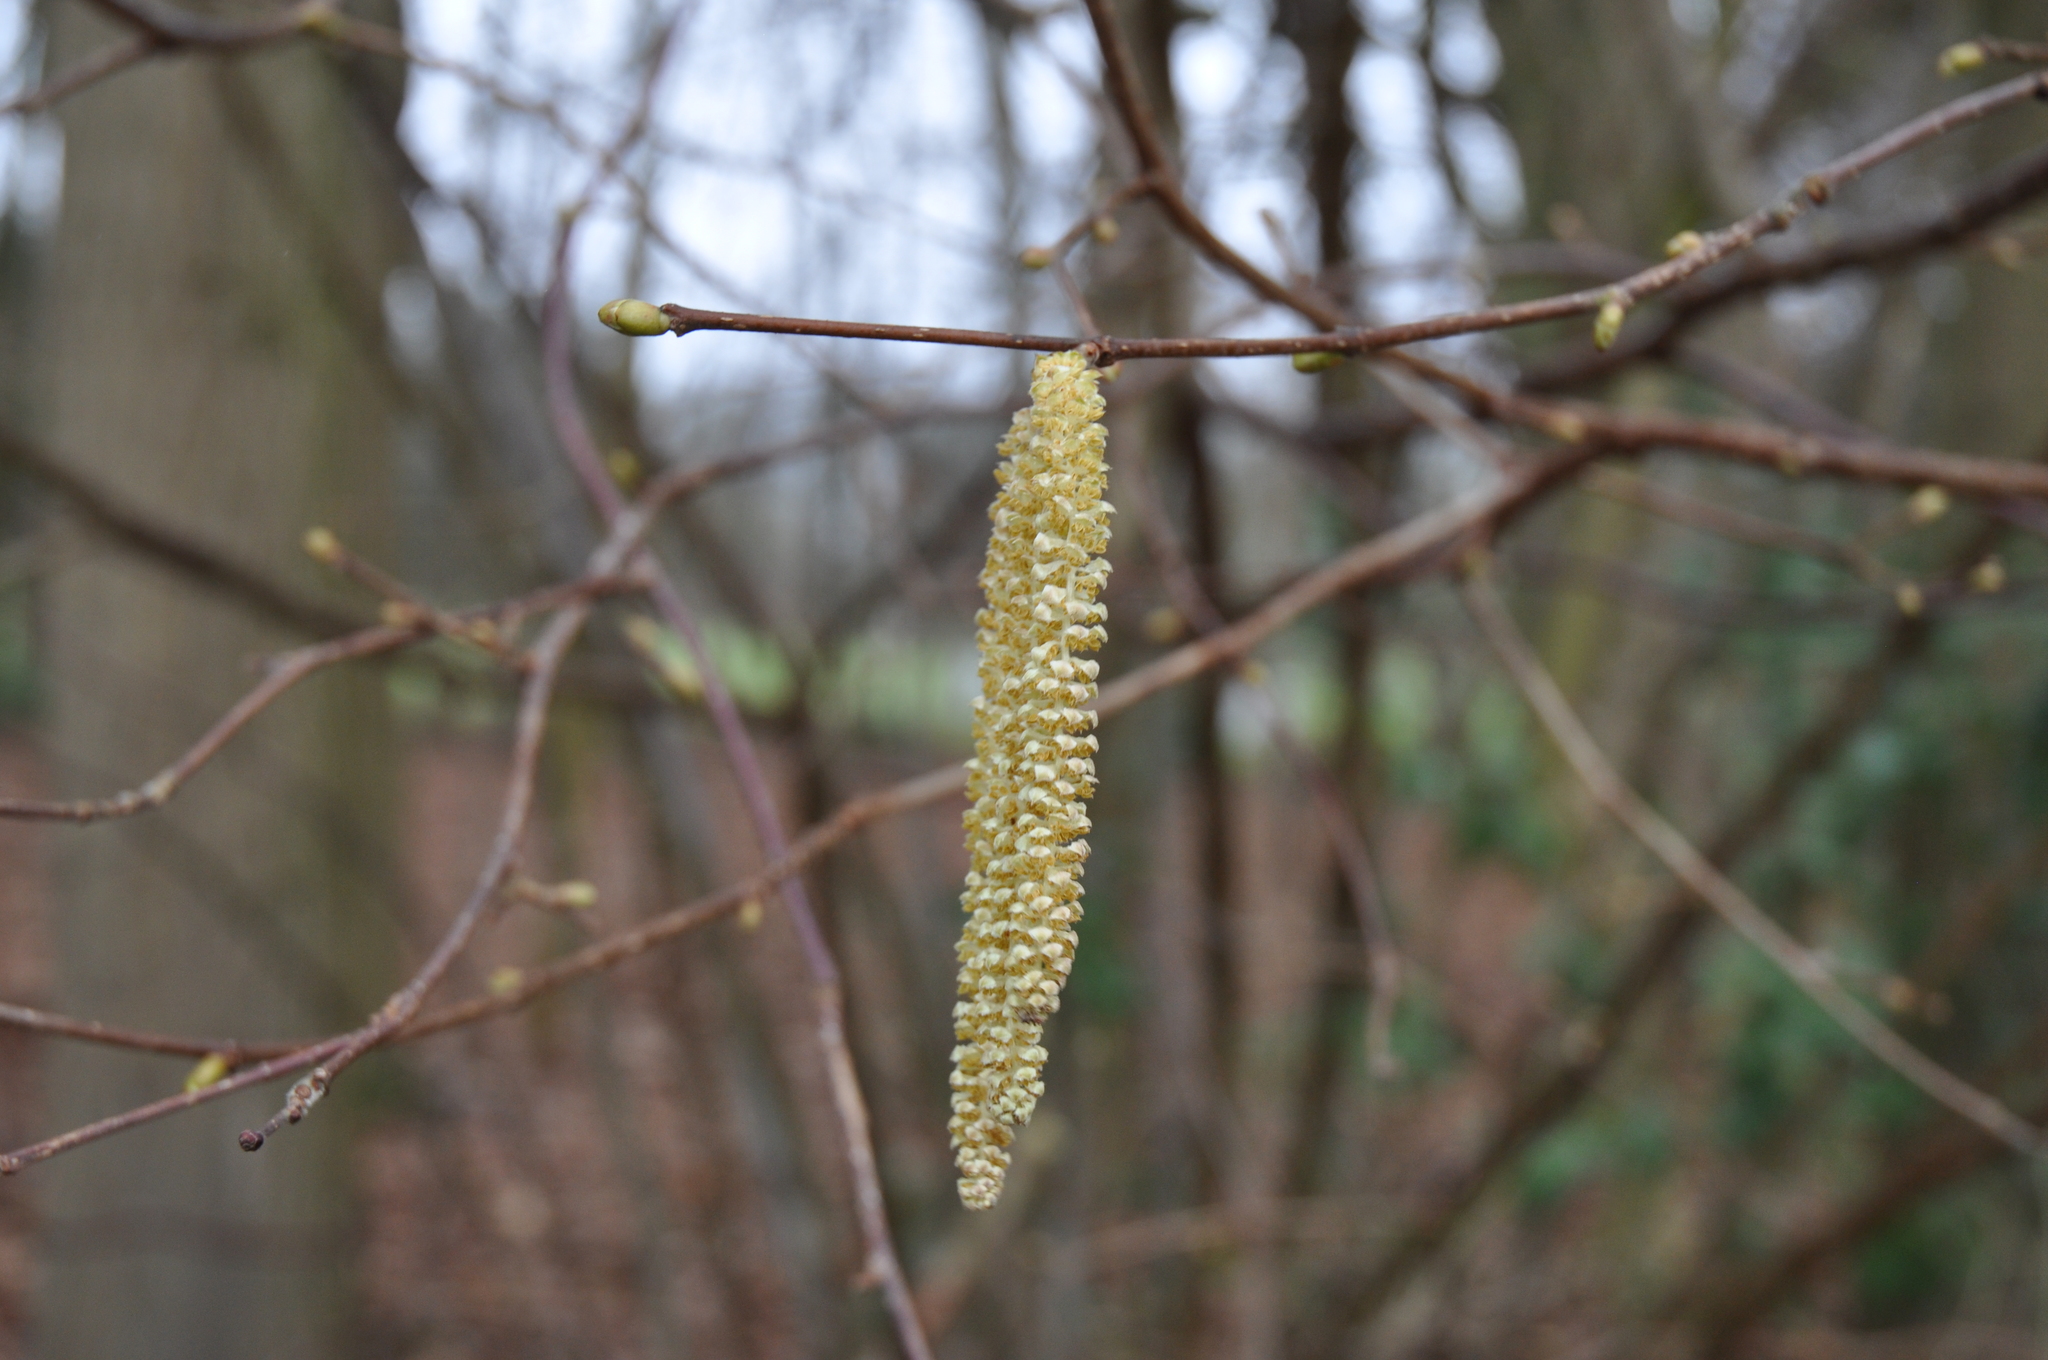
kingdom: Plantae
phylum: Tracheophyta
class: Magnoliopsida
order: Fagales
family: Betulaceae
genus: Corylus
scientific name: Corylus avellana
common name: European hazel
